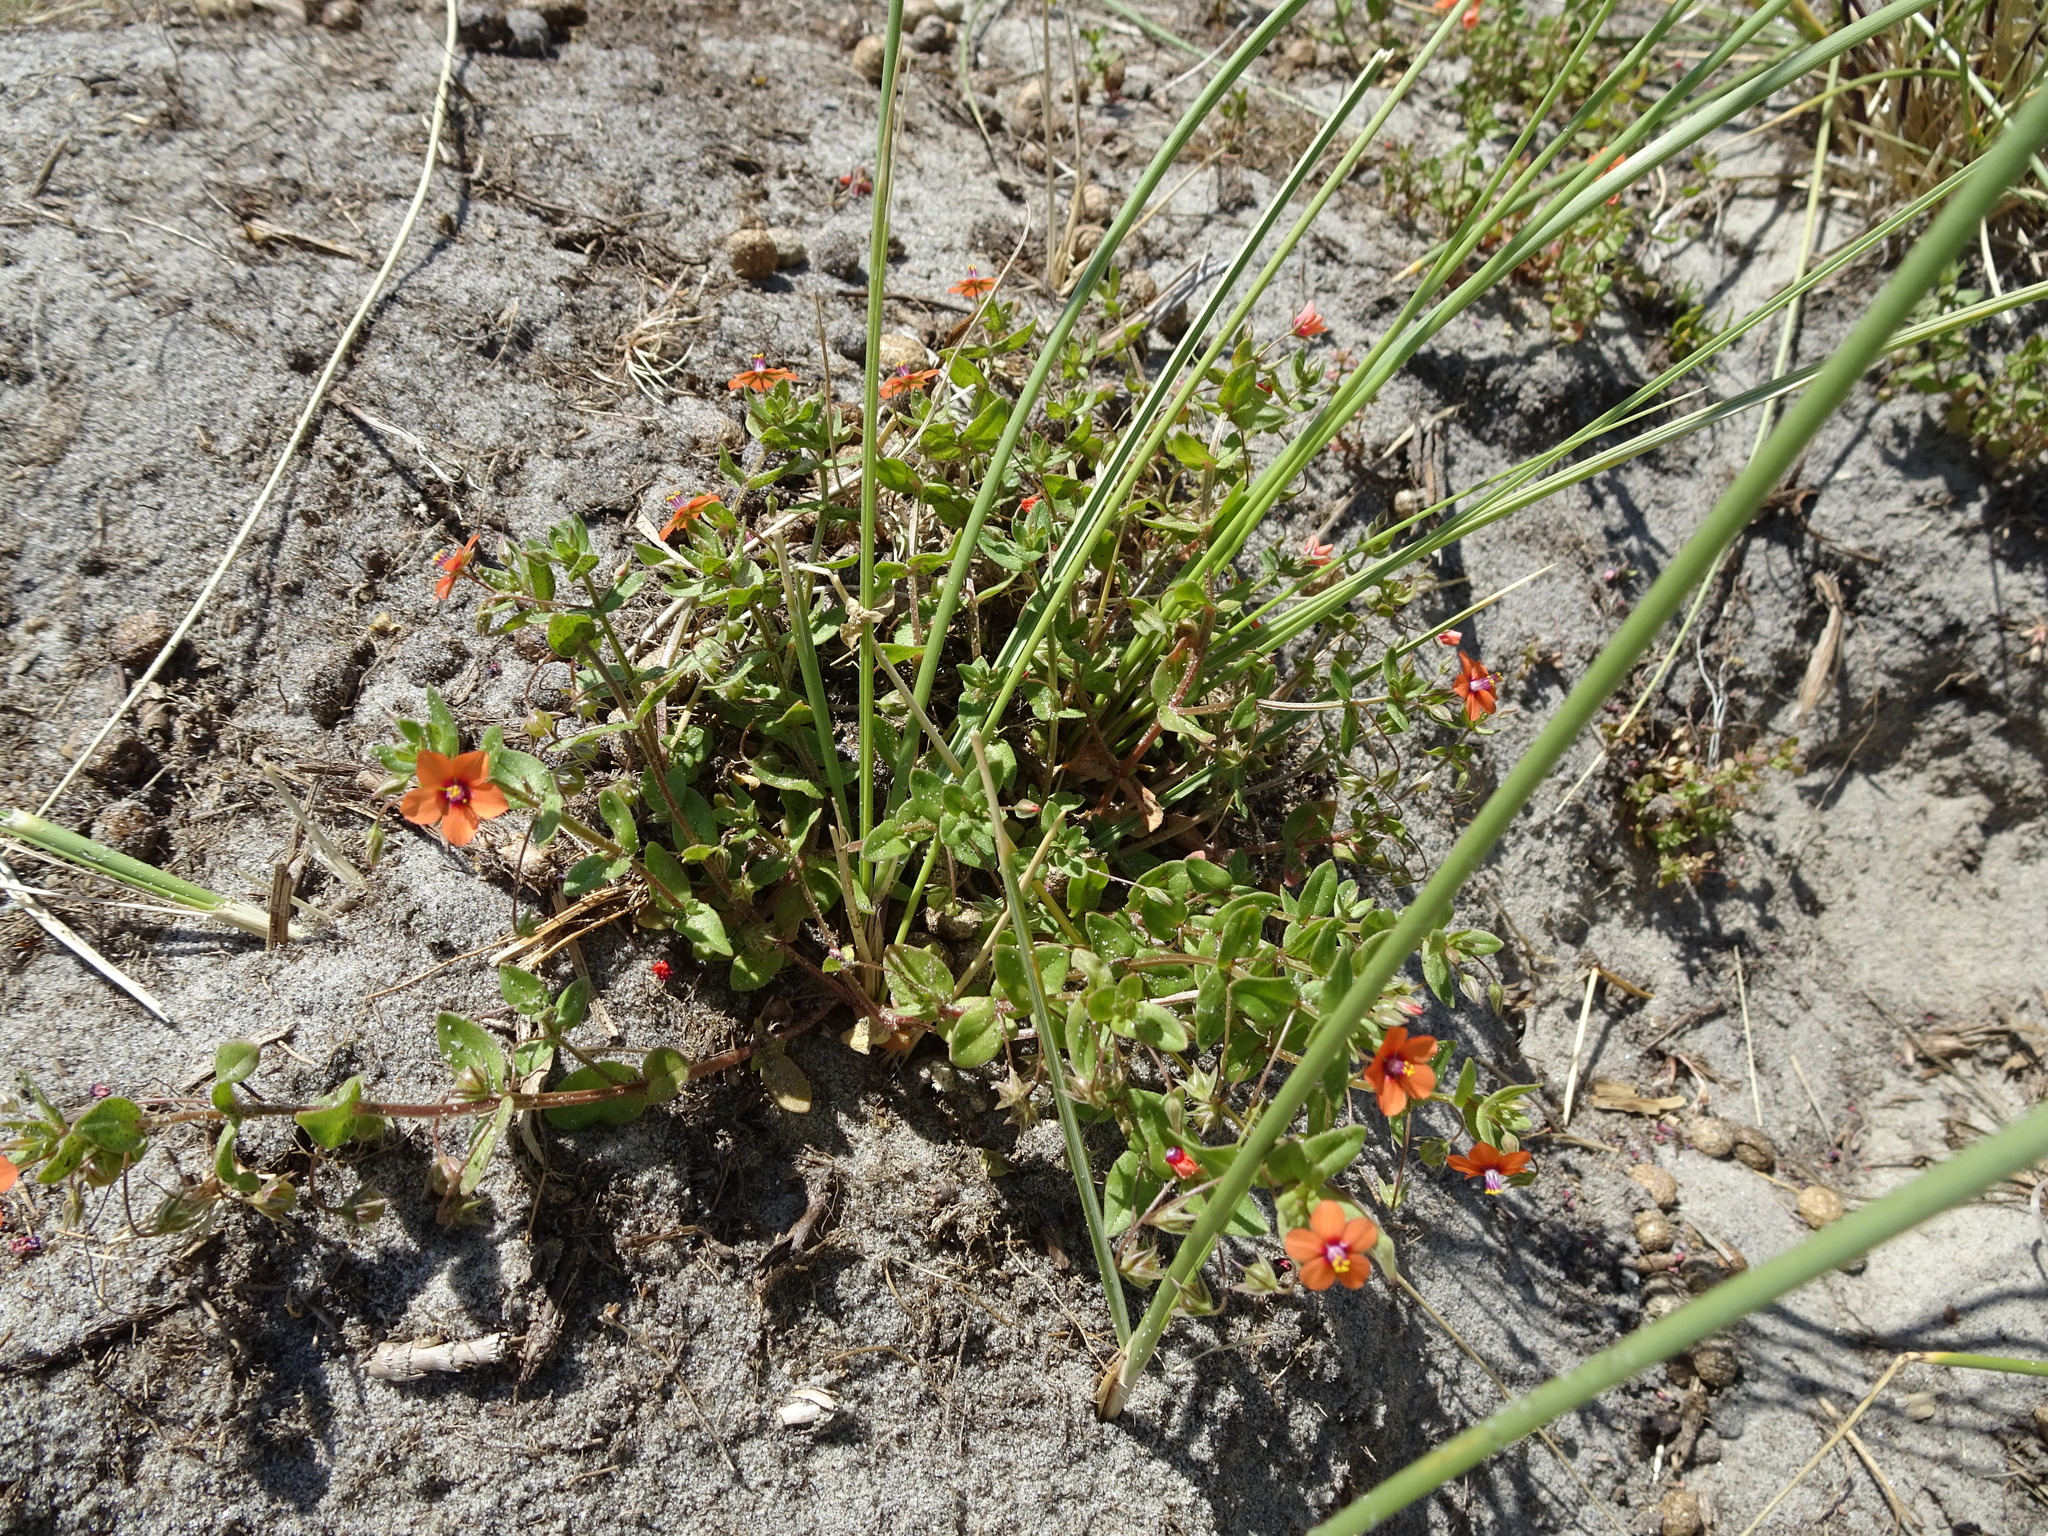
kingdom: Plantae
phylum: Tracheophyta
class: Magnoliopsida
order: Ericales
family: Primulaceae
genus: Lysimachia
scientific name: Lysimachia arvensis
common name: Scarlet pimpernel
